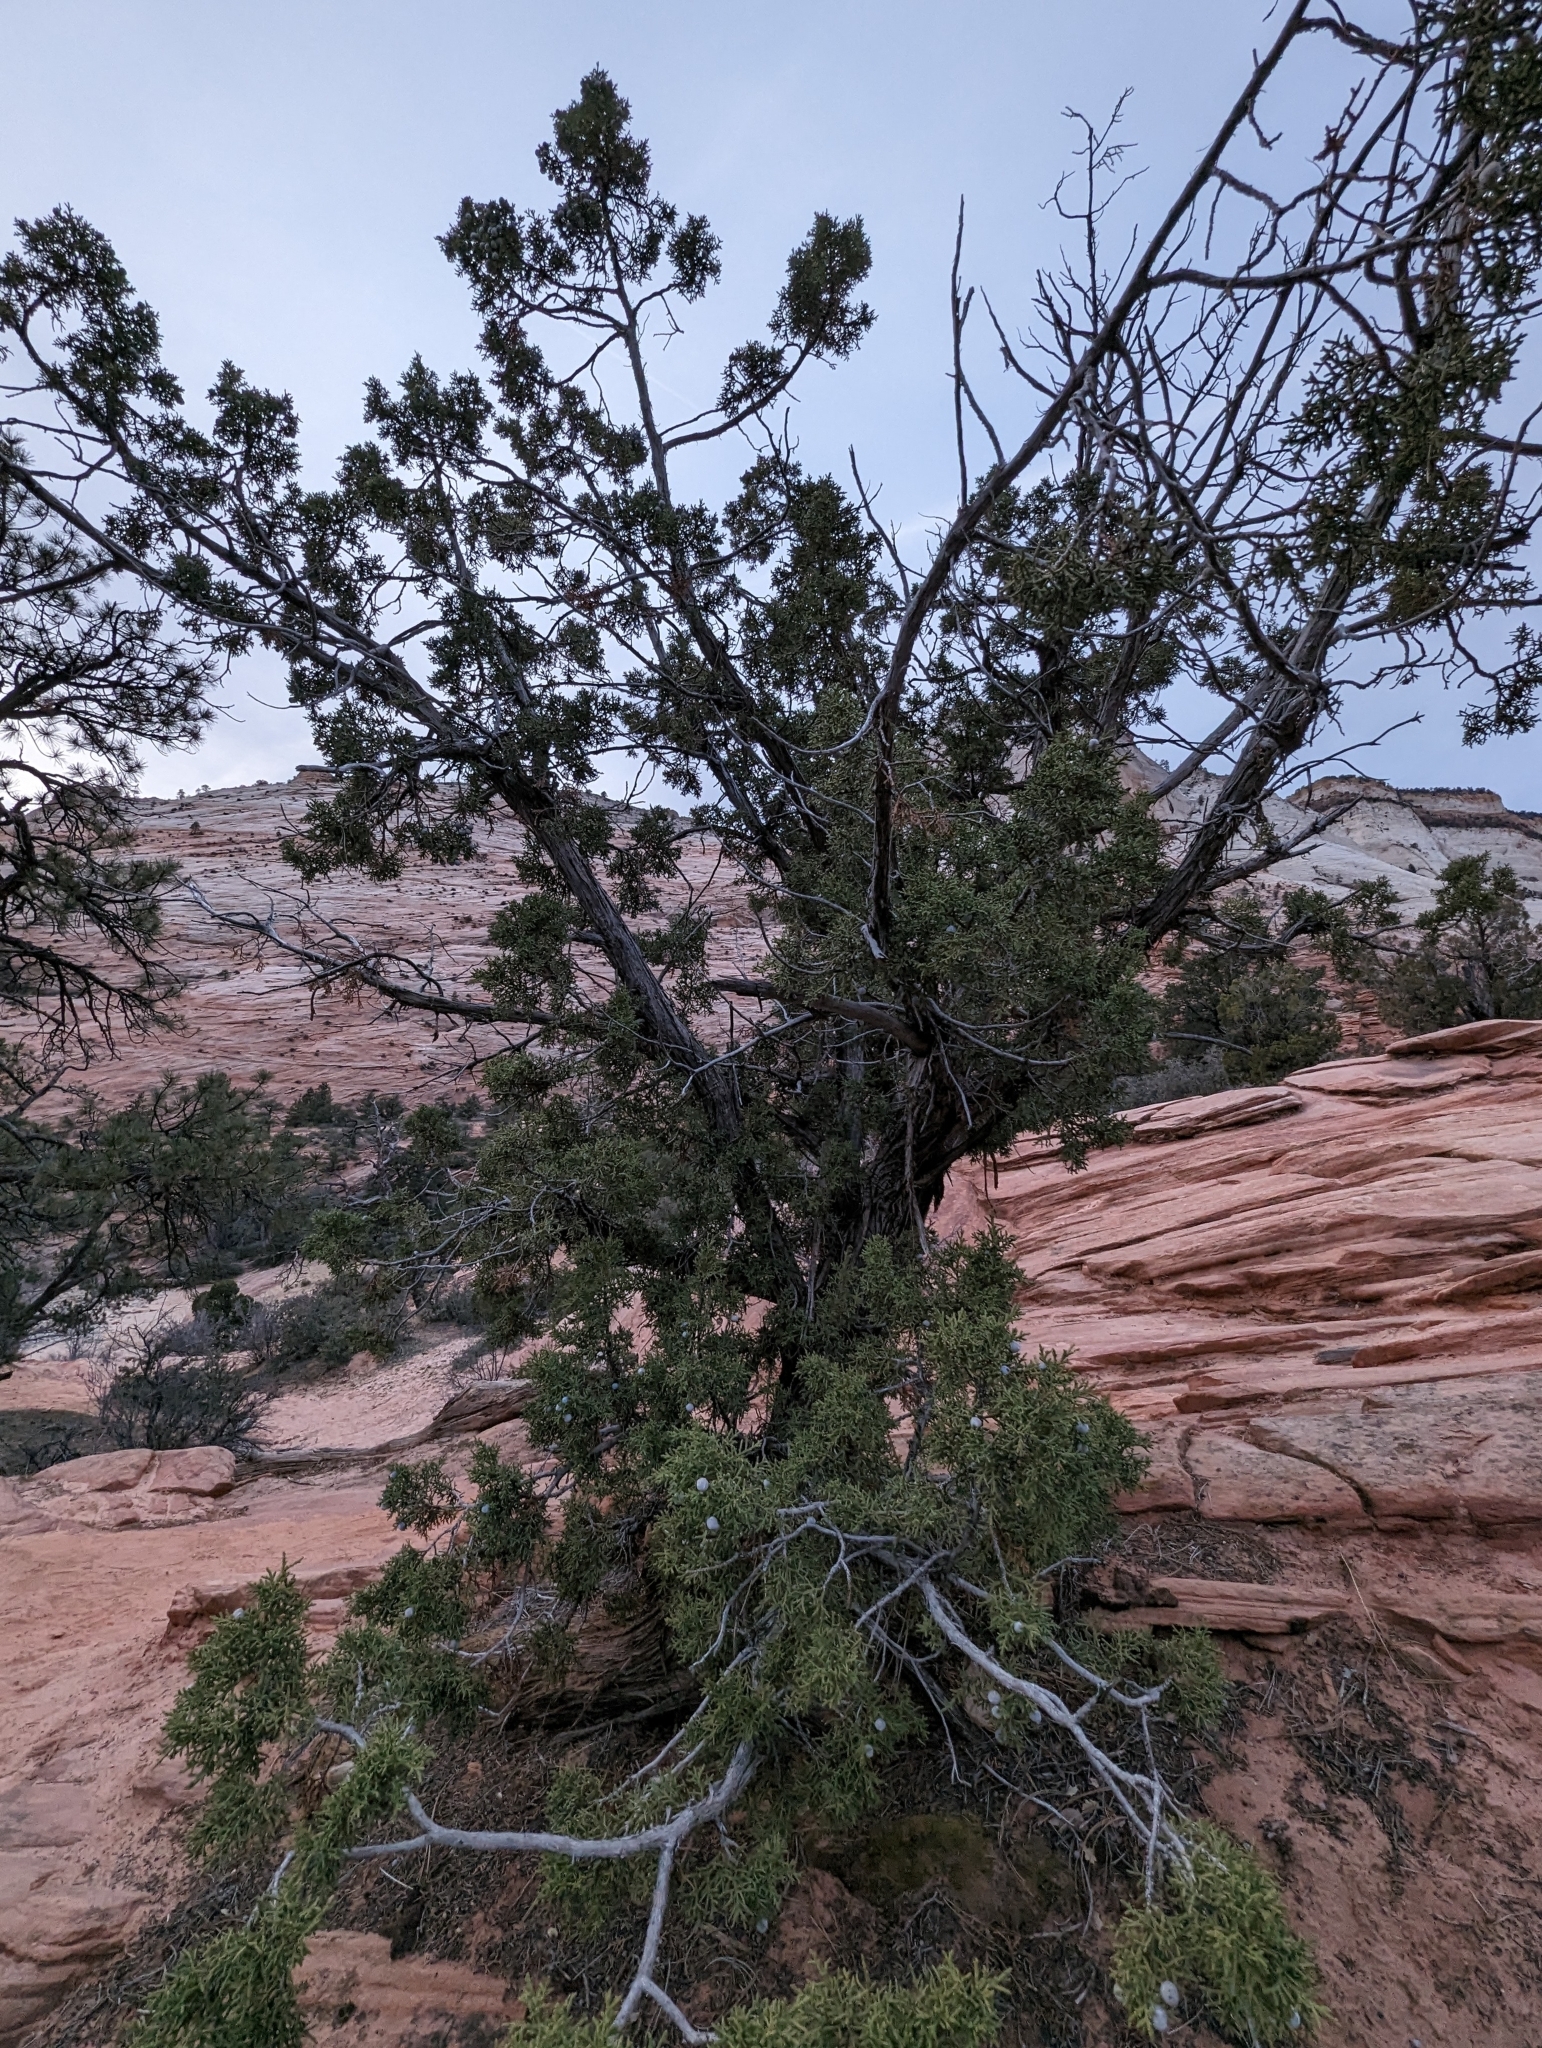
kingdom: Plantae
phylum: Tracheophyta
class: Pinopsida
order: Pinales
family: Cupressaceae
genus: Juniperus
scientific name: Juniperus osteosperma
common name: Utah juniper
